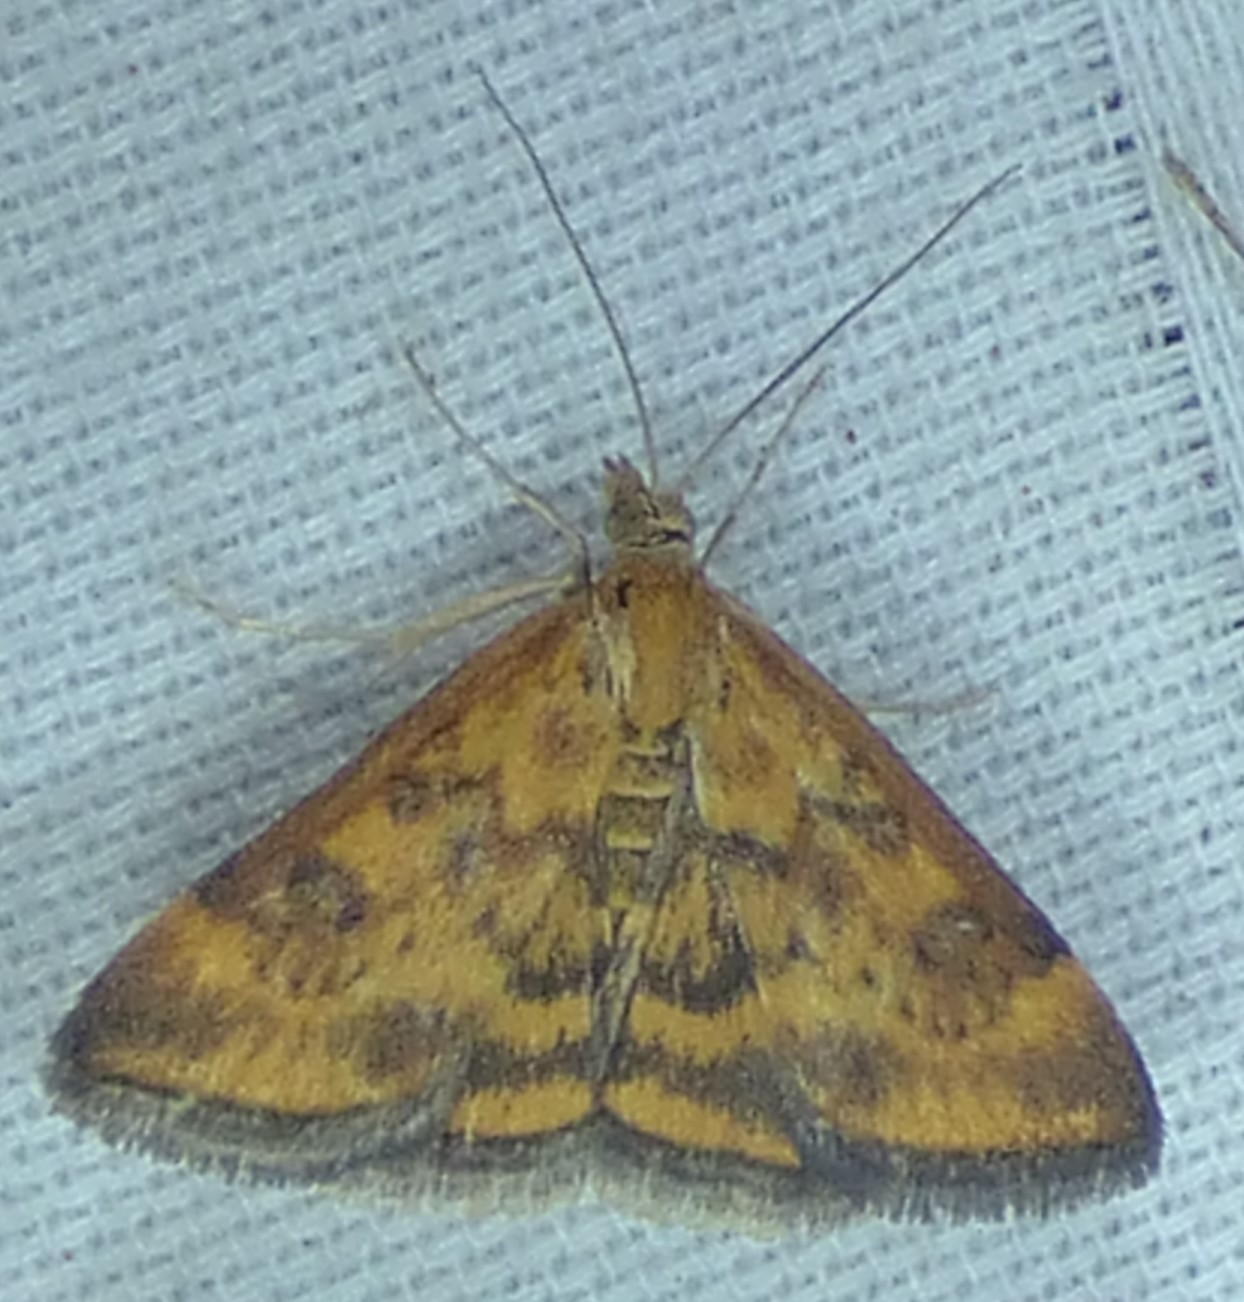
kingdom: Animalia
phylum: Arthropoda
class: Insecta
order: Lepidoptera
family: Crambidae
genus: Pyrausta
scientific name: Pyrausta subsequalis
